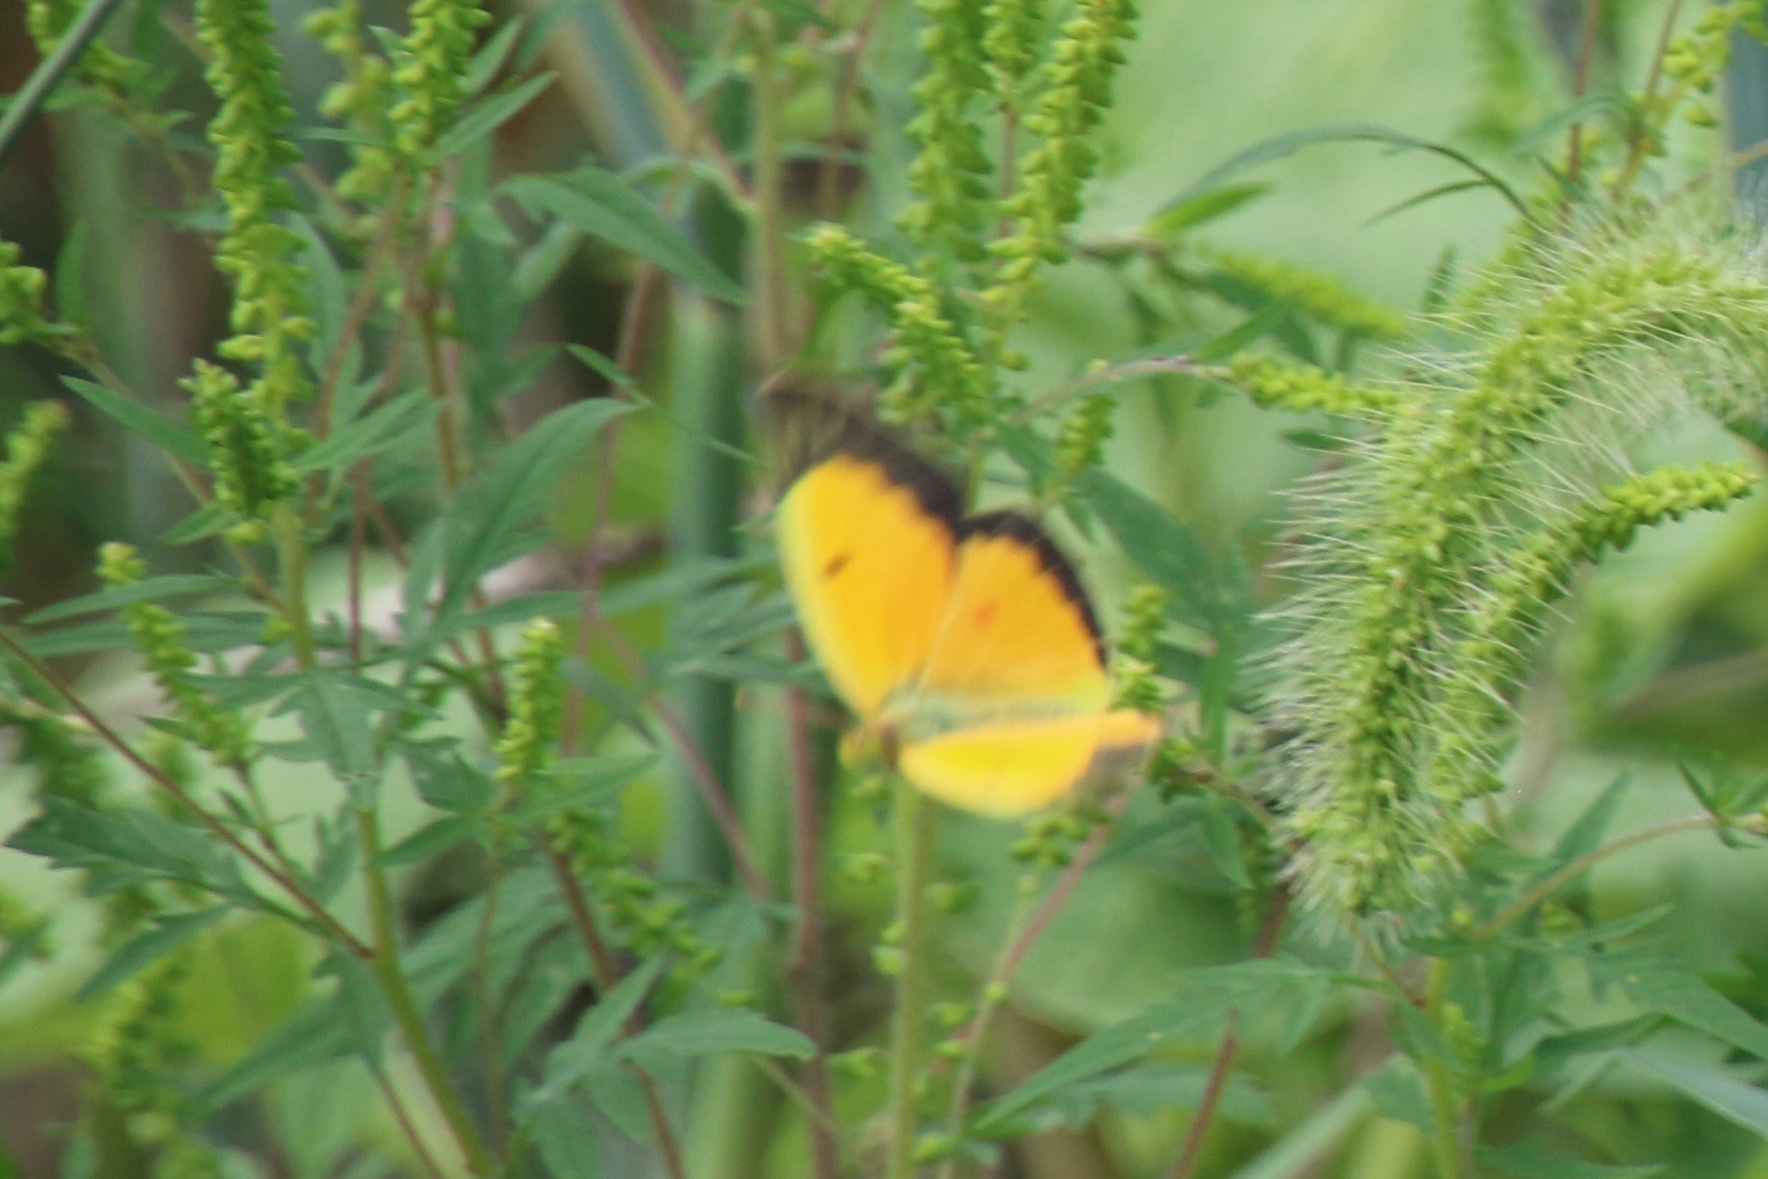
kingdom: Animalia
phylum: Arthropoda
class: Insecta
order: Lepidoptera
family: Pieridae
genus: Colias
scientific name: Colias eurytheme
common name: Alfalfa butterfly
